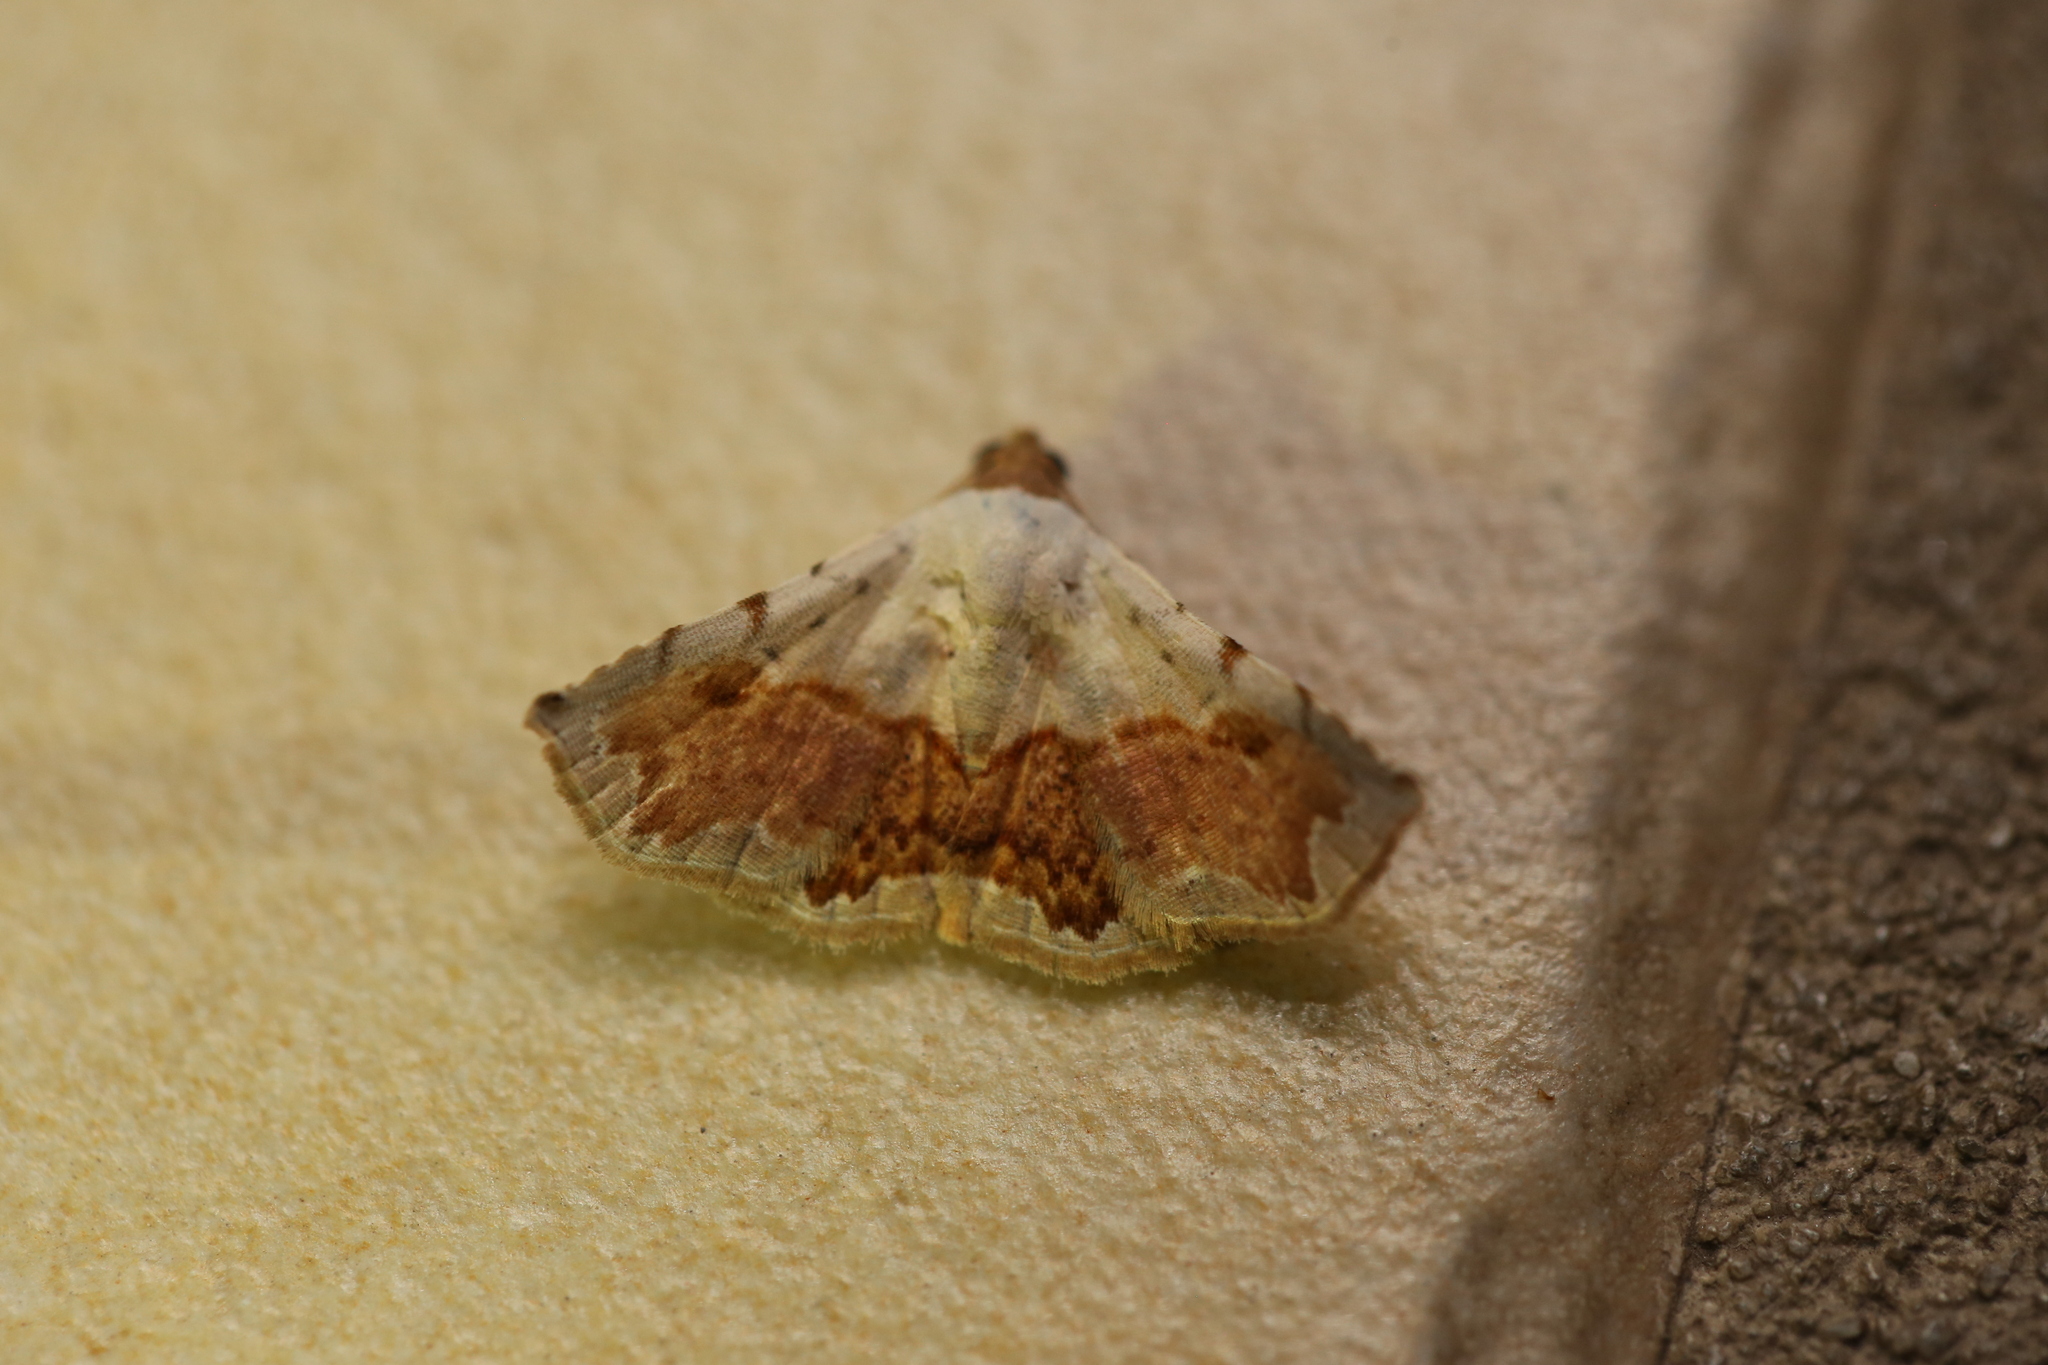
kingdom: Animalia
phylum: Arthropoda
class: Insecta
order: Lepidoptera
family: Noctuidae
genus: Eublemma
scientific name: Eublemma
